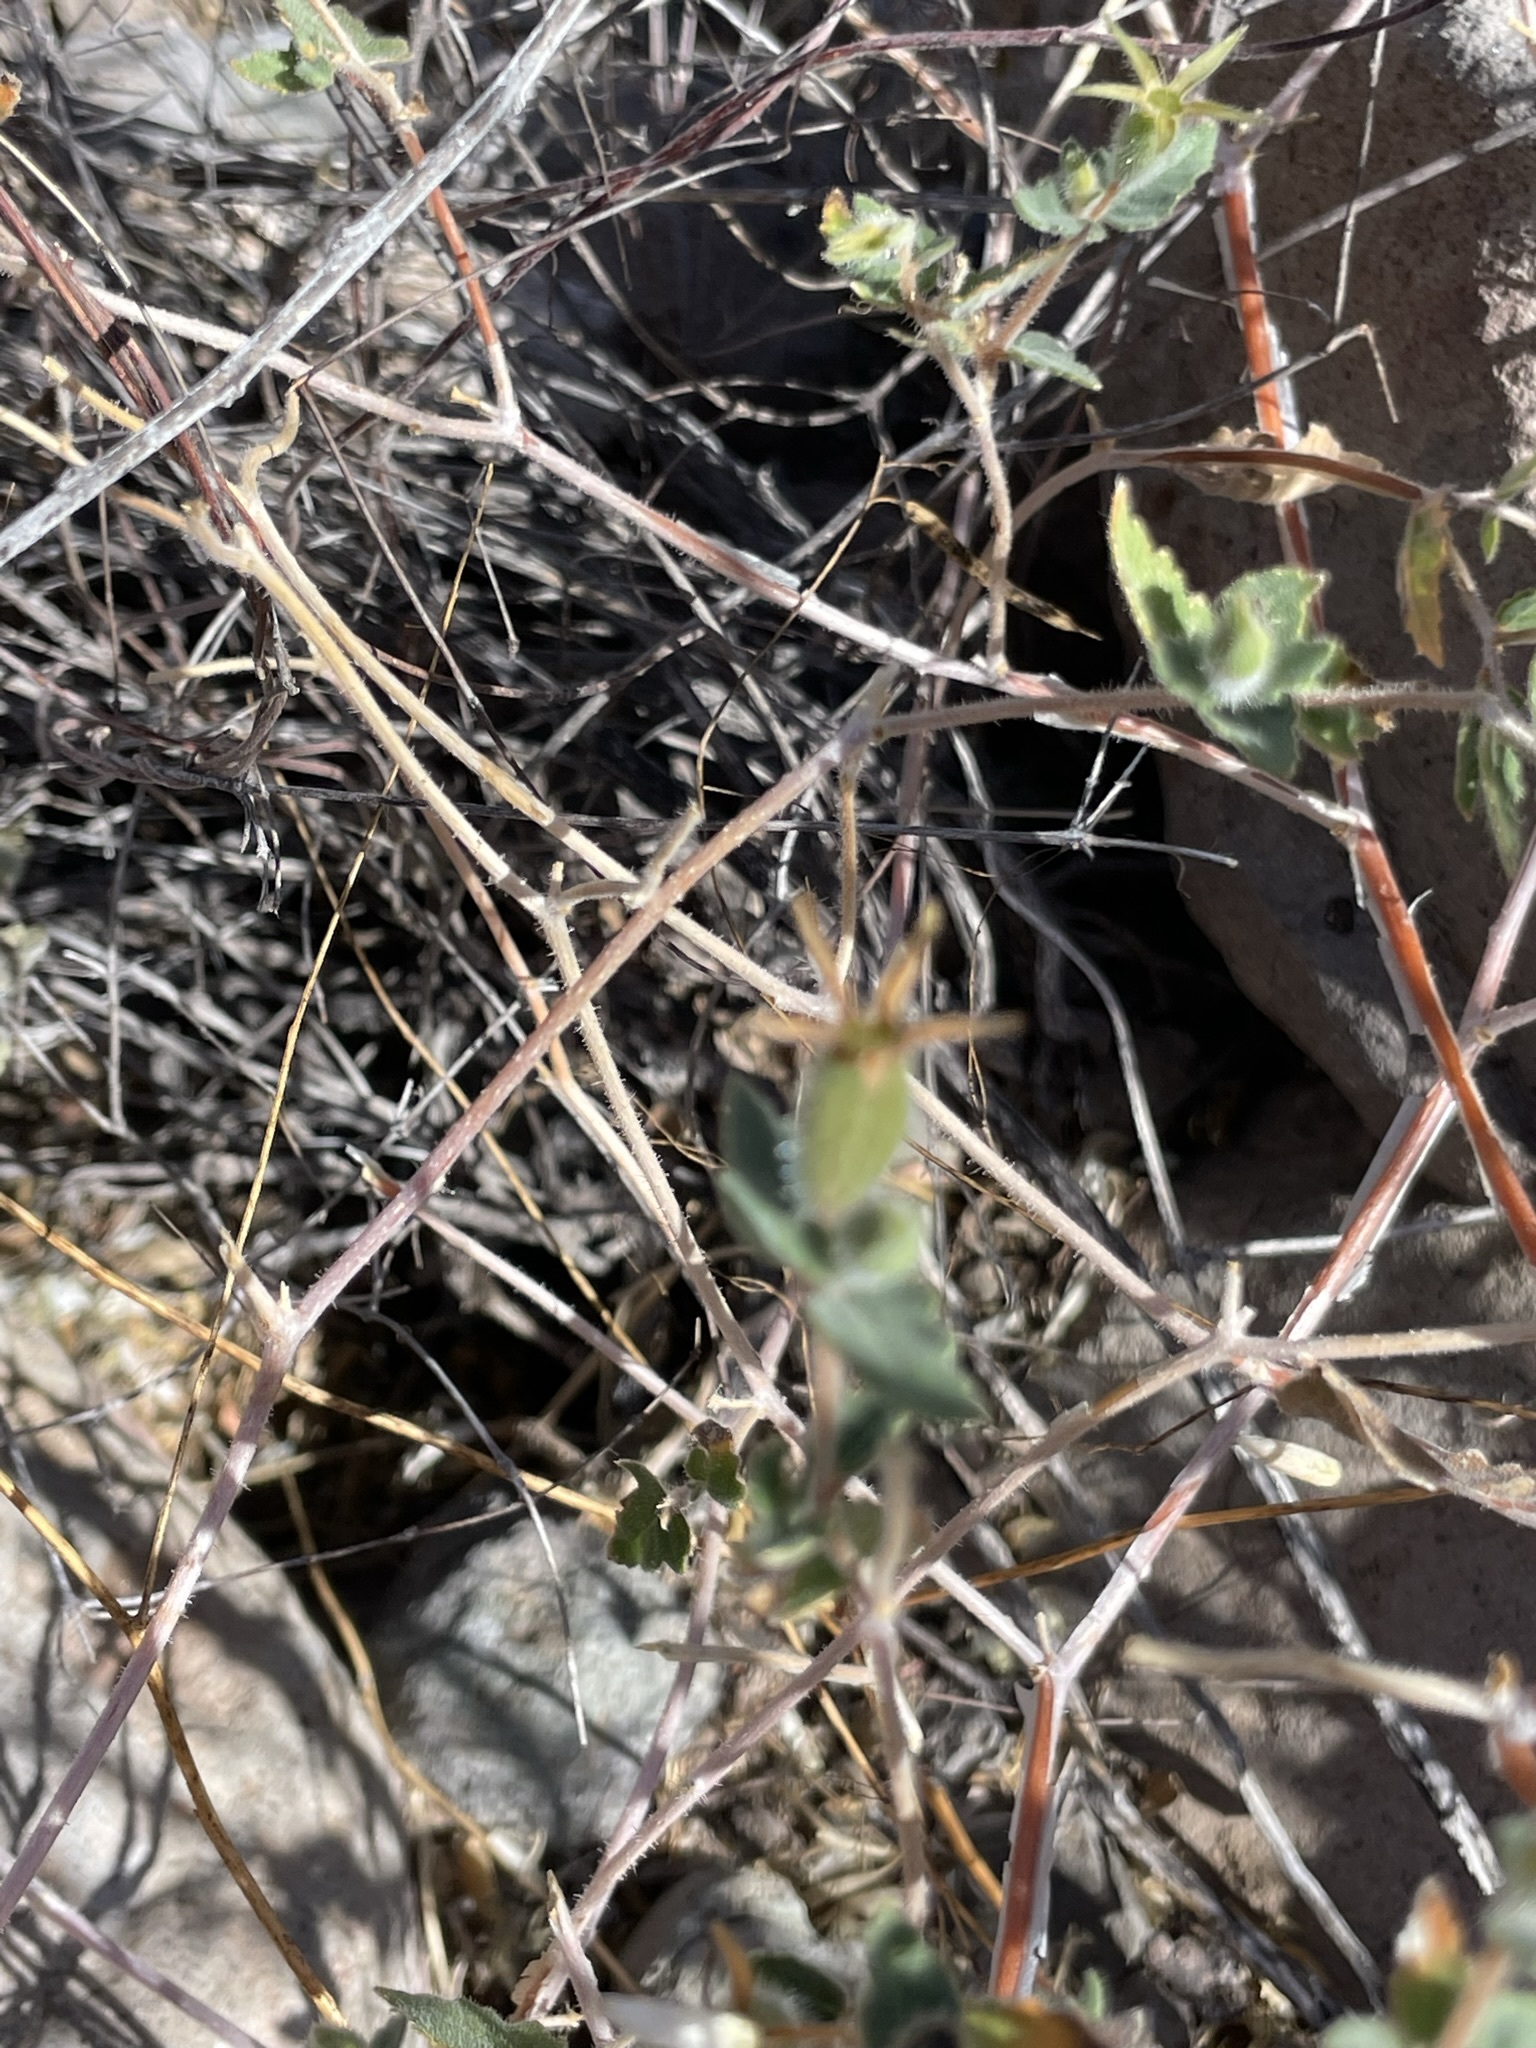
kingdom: Plantae
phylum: Tracheophyta
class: Magnoliopsida
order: Cornales
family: Loasaceae
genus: Mentzelia
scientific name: Mentzelia adhaerens
